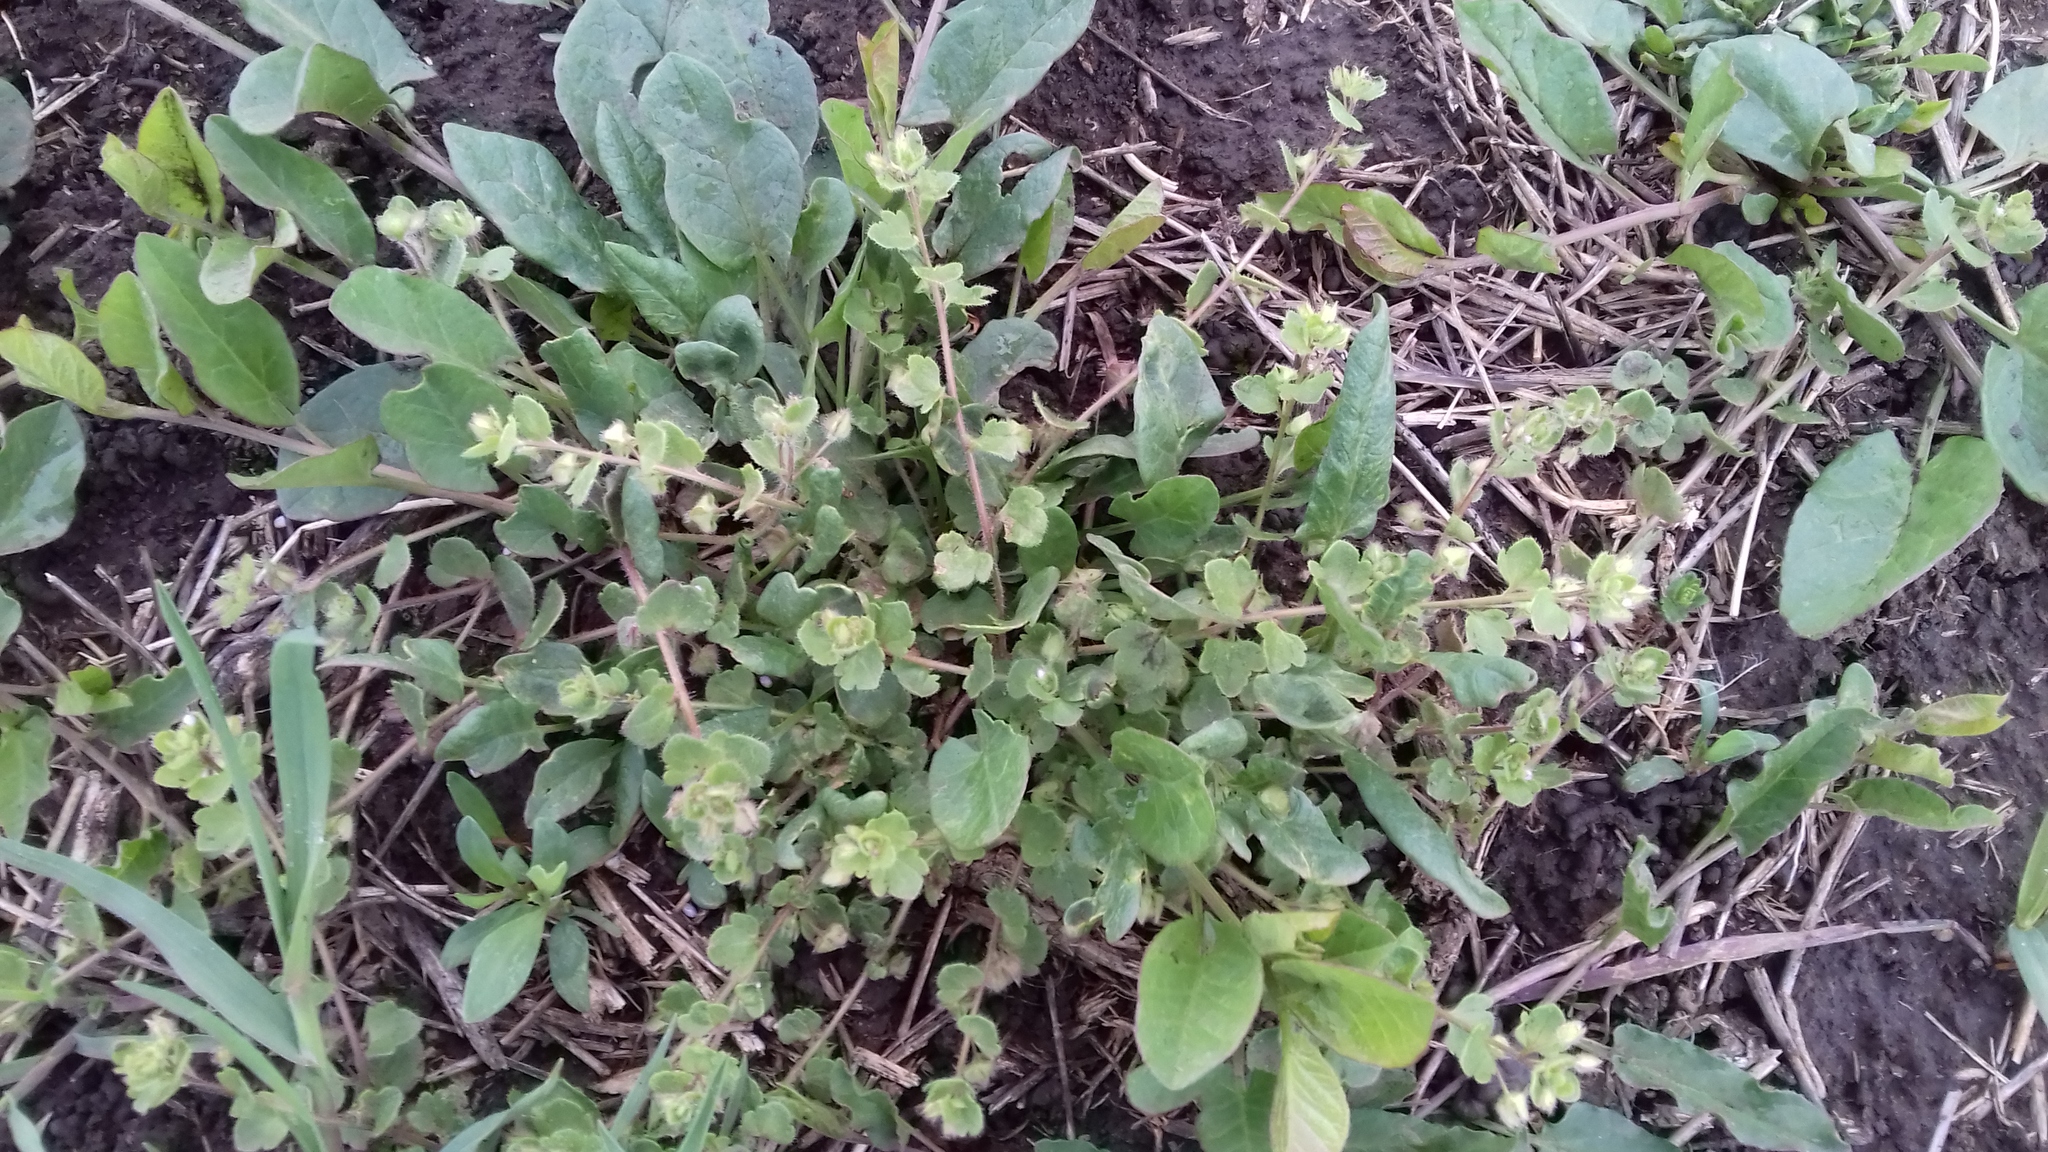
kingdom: Plantae
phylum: Tracheophyta
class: Magnoliopsida
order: Lamiales
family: Plantaginaceae
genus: Veronica
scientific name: Veronica hederifolia
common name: Ivy-leaved speedwell
